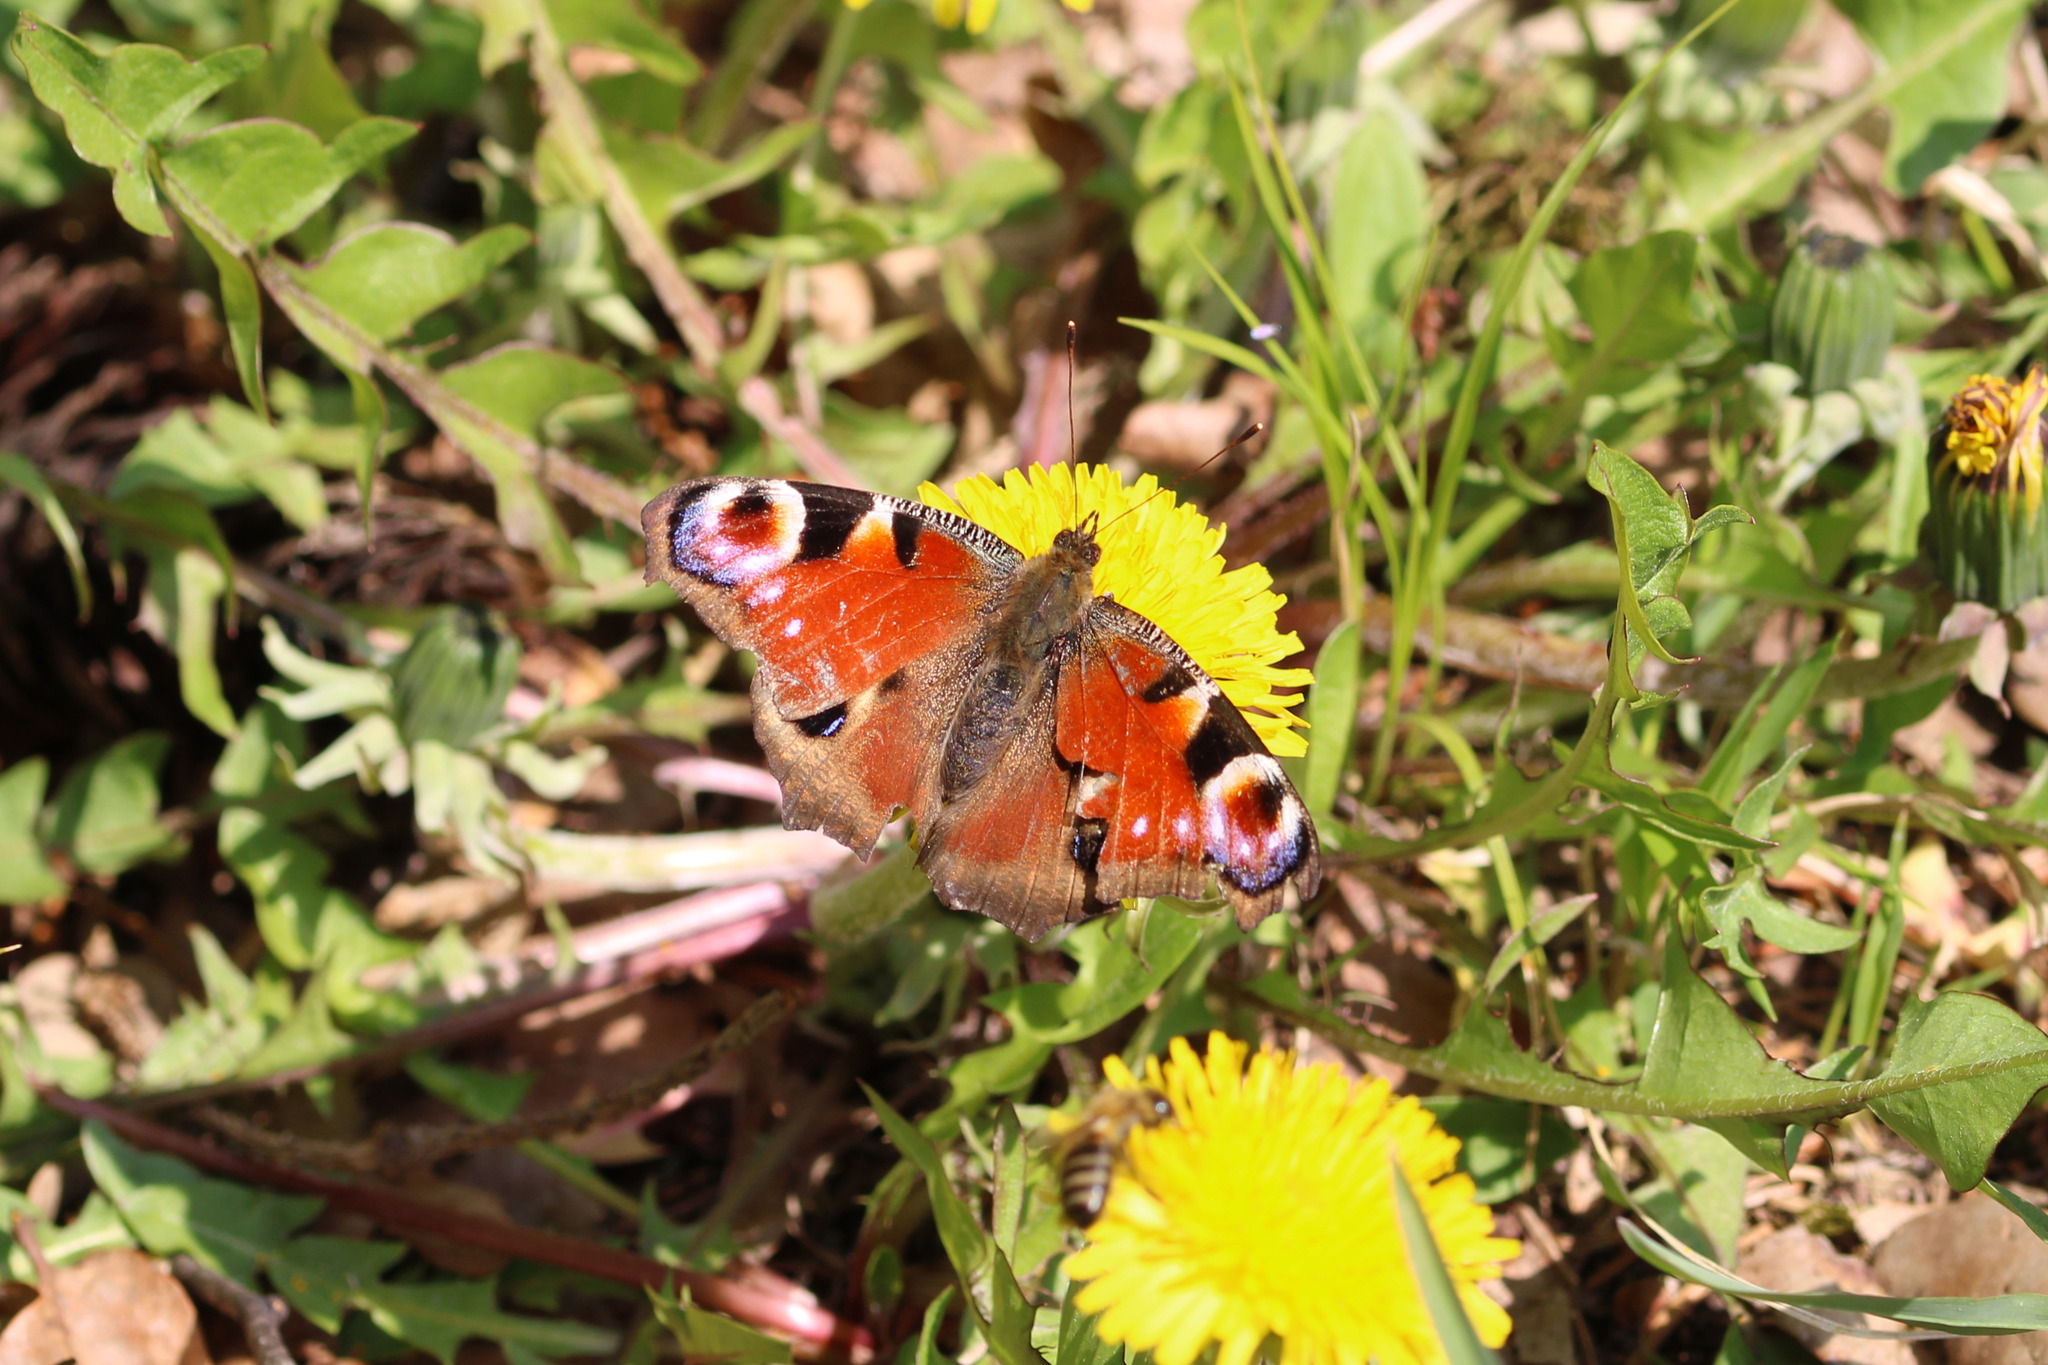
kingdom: Animalia
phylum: Arthropoda
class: Insecta
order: Lepidoptera
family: Nymphalidae
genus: Aglais
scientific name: Aglais io
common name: Peacock
